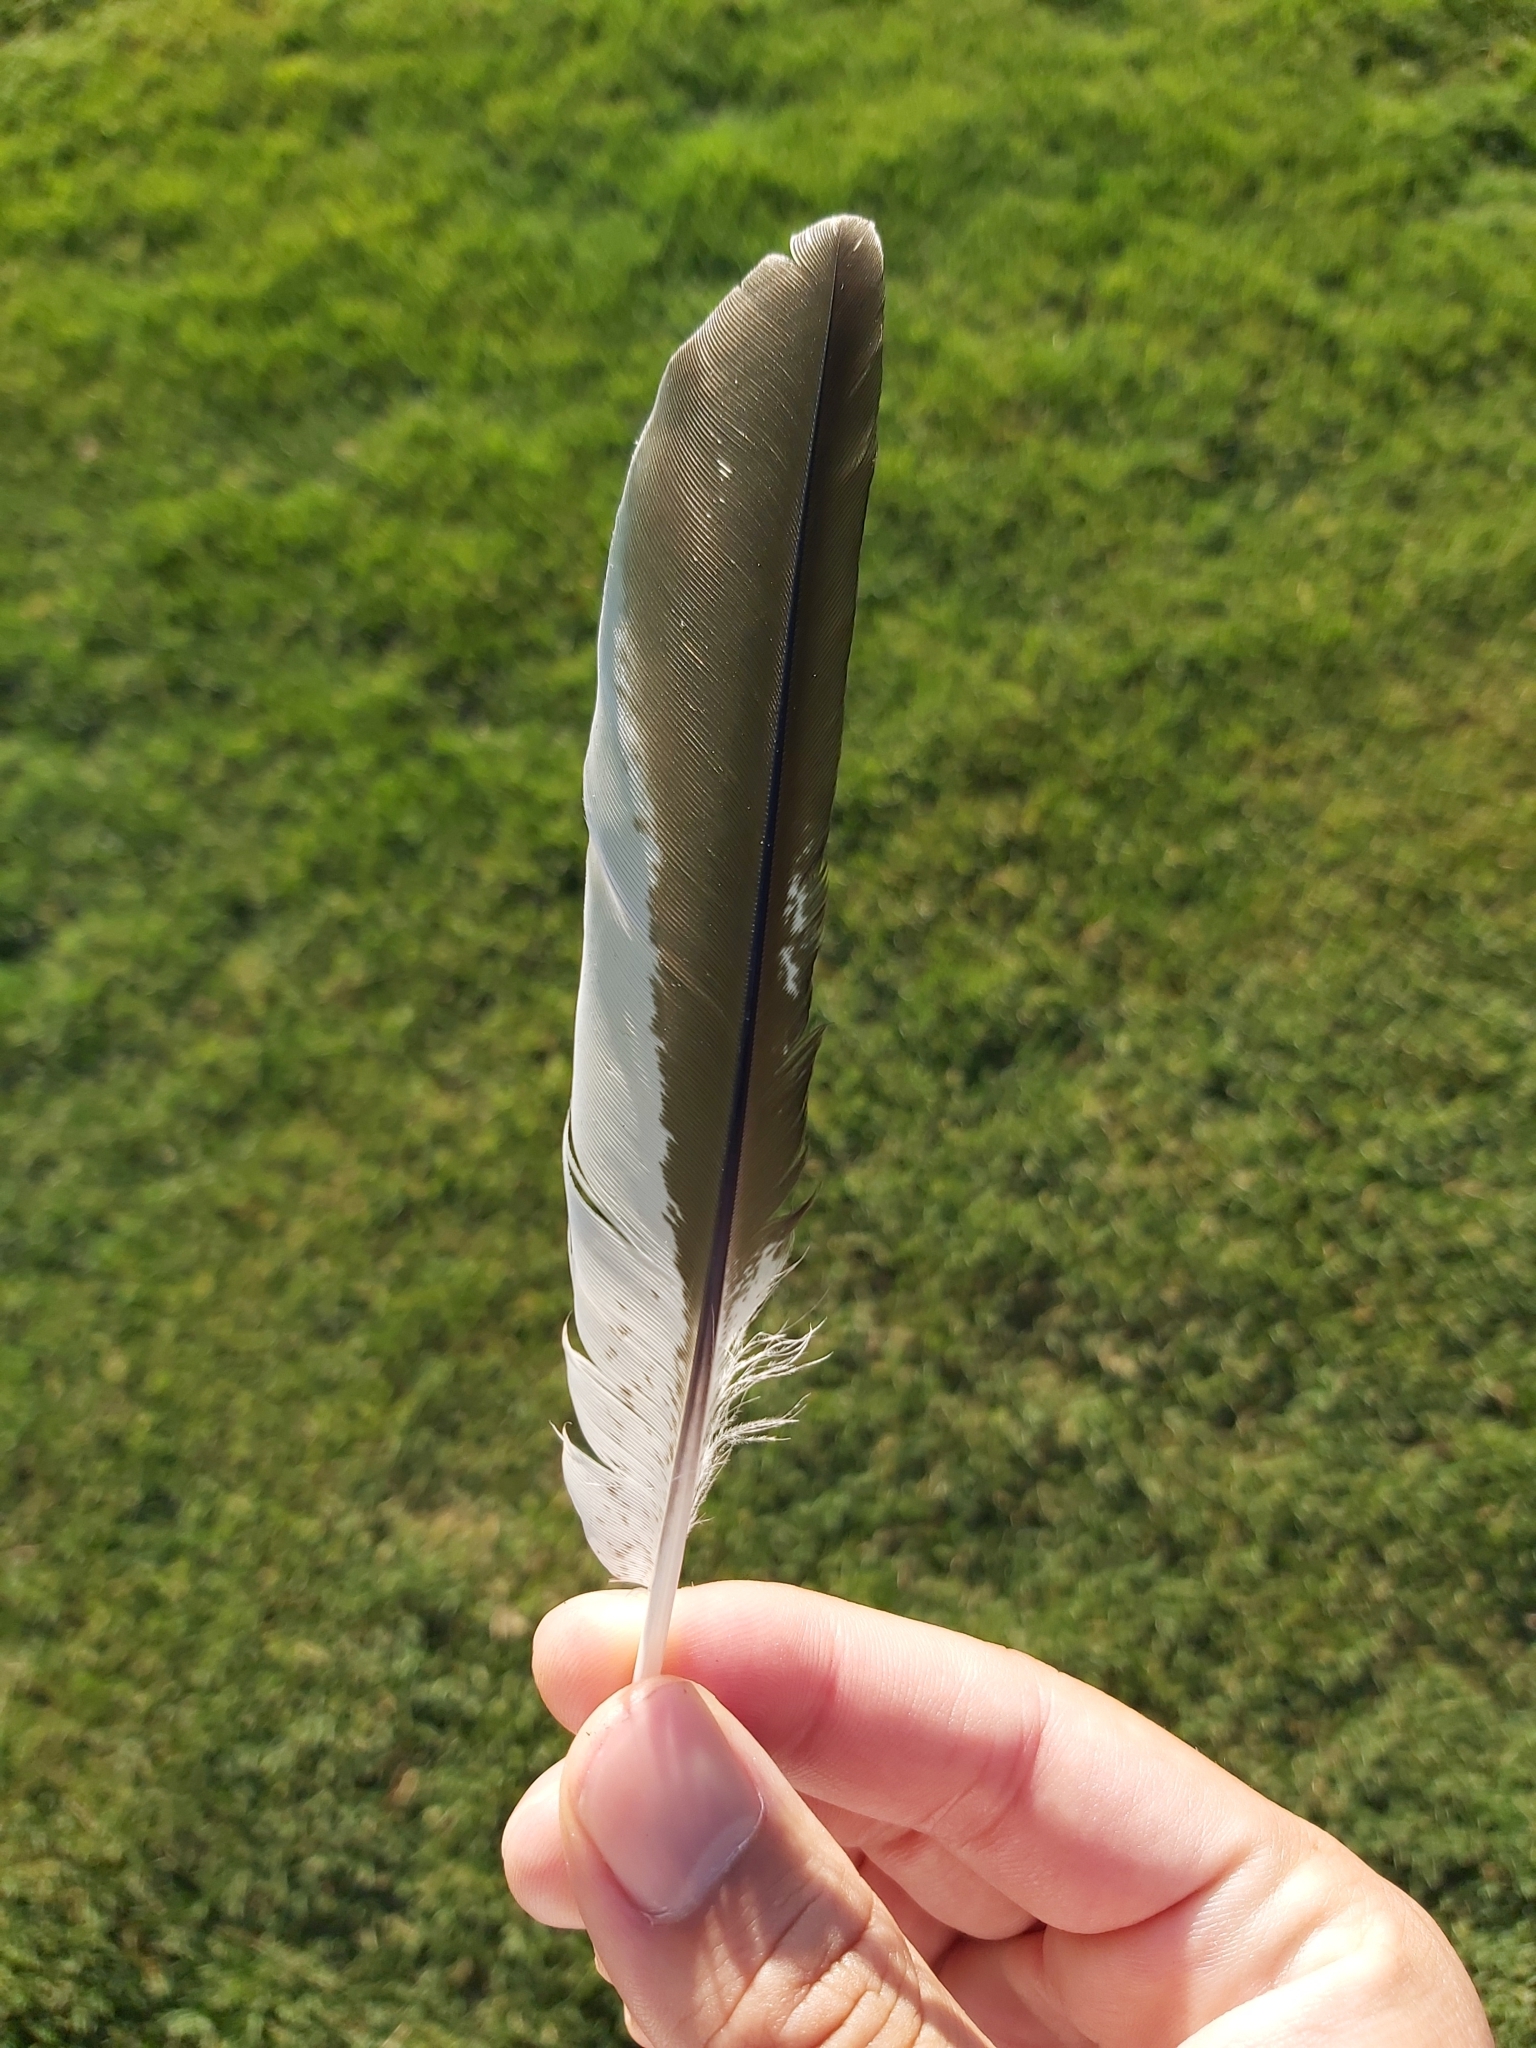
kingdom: Animalia
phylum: Chordata
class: Aves
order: Coraciiformes
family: Alcedinidae
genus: Dacelo
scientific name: Dacelo novaeguineae
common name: Laughing kookaburra
